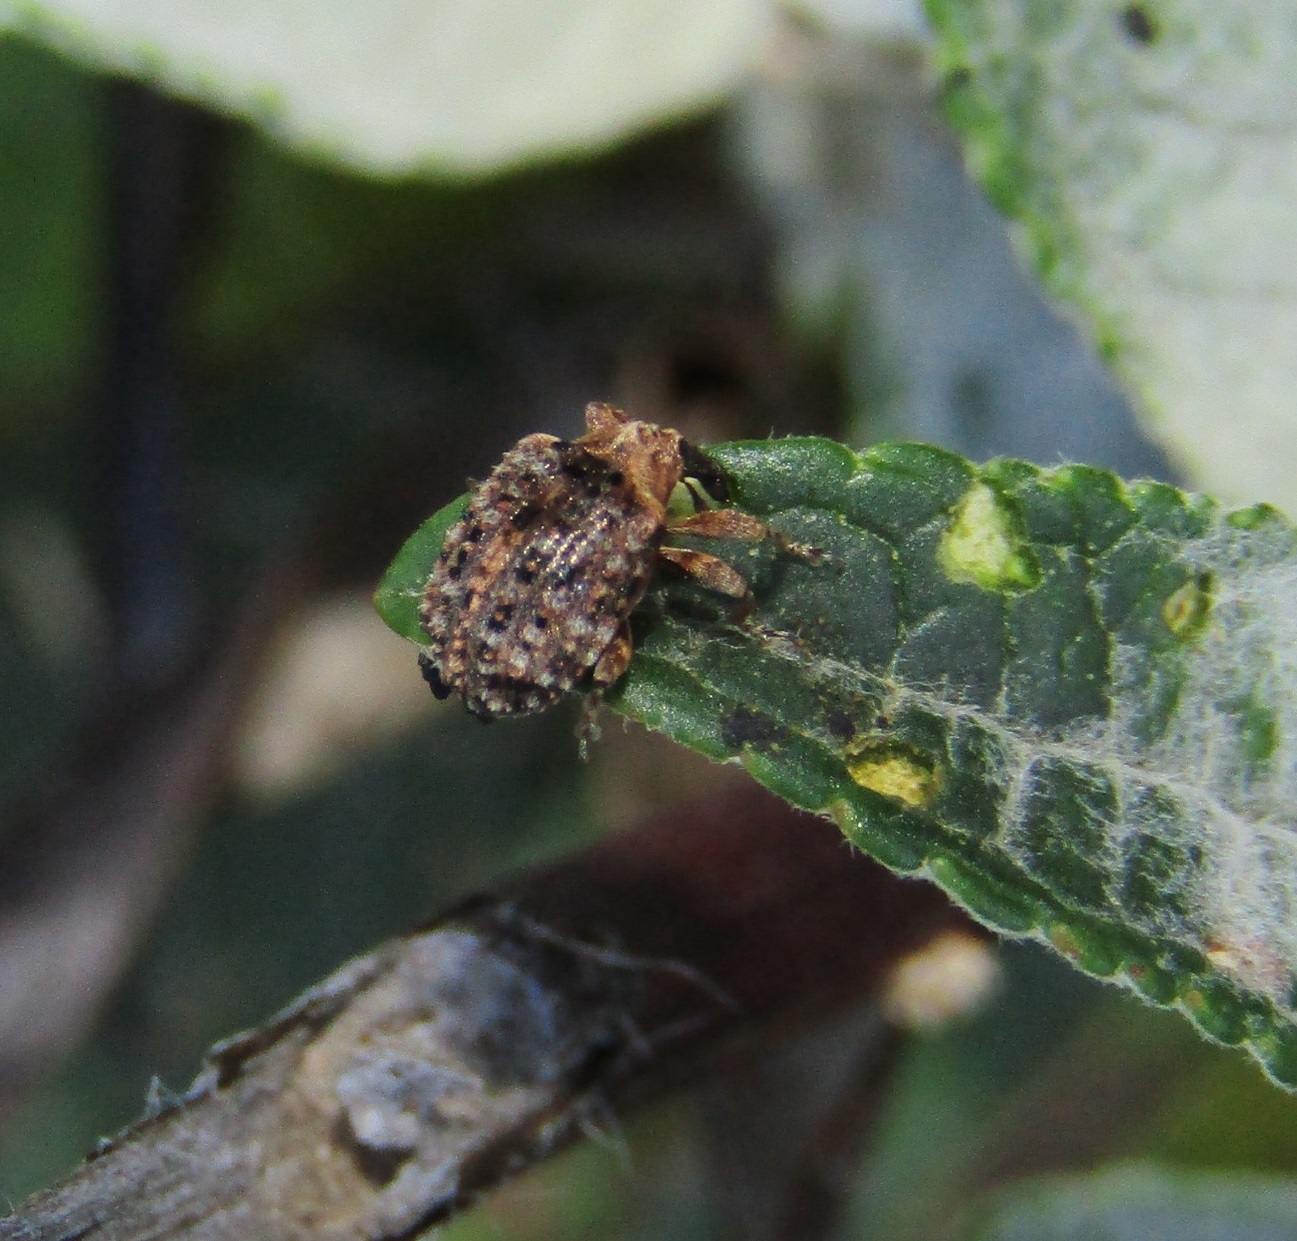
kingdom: Animalia
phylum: Arthropoda
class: Insecta
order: Coleoptera
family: Curculionidae
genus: Cleopus
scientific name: Cleopus japonicus
